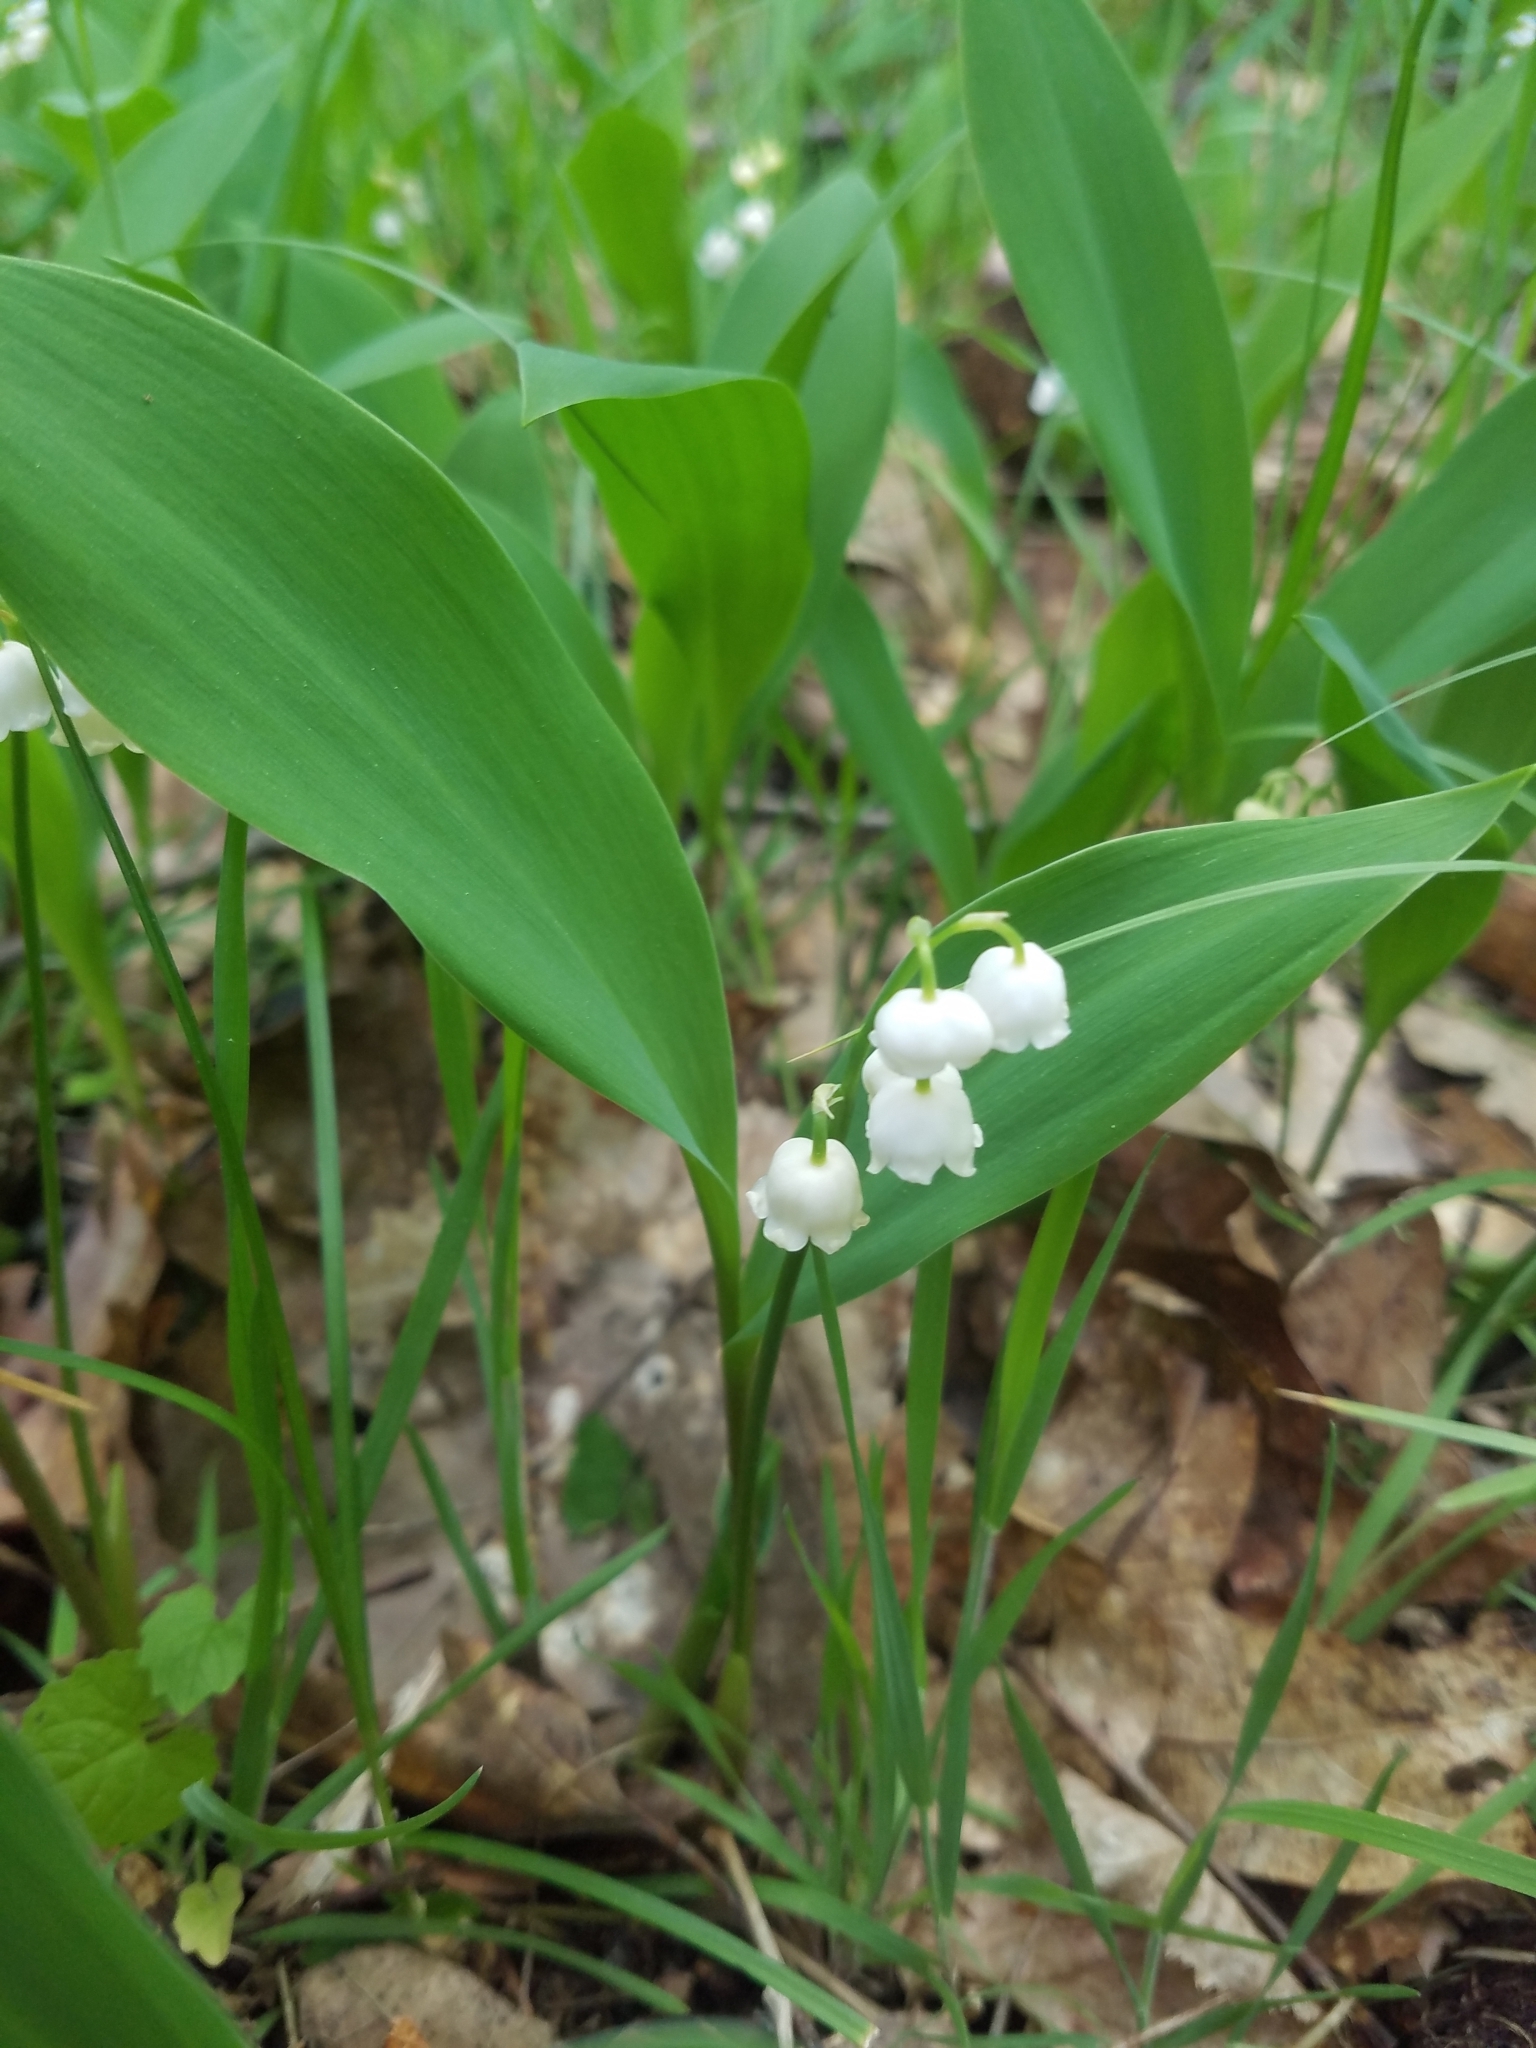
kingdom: Plantae
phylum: Tracheophyta
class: Liliopsida
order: Asparagales
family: Asparagaceae
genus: Convallaria
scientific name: Convallaria majalis
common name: Lily-of-the-valley
